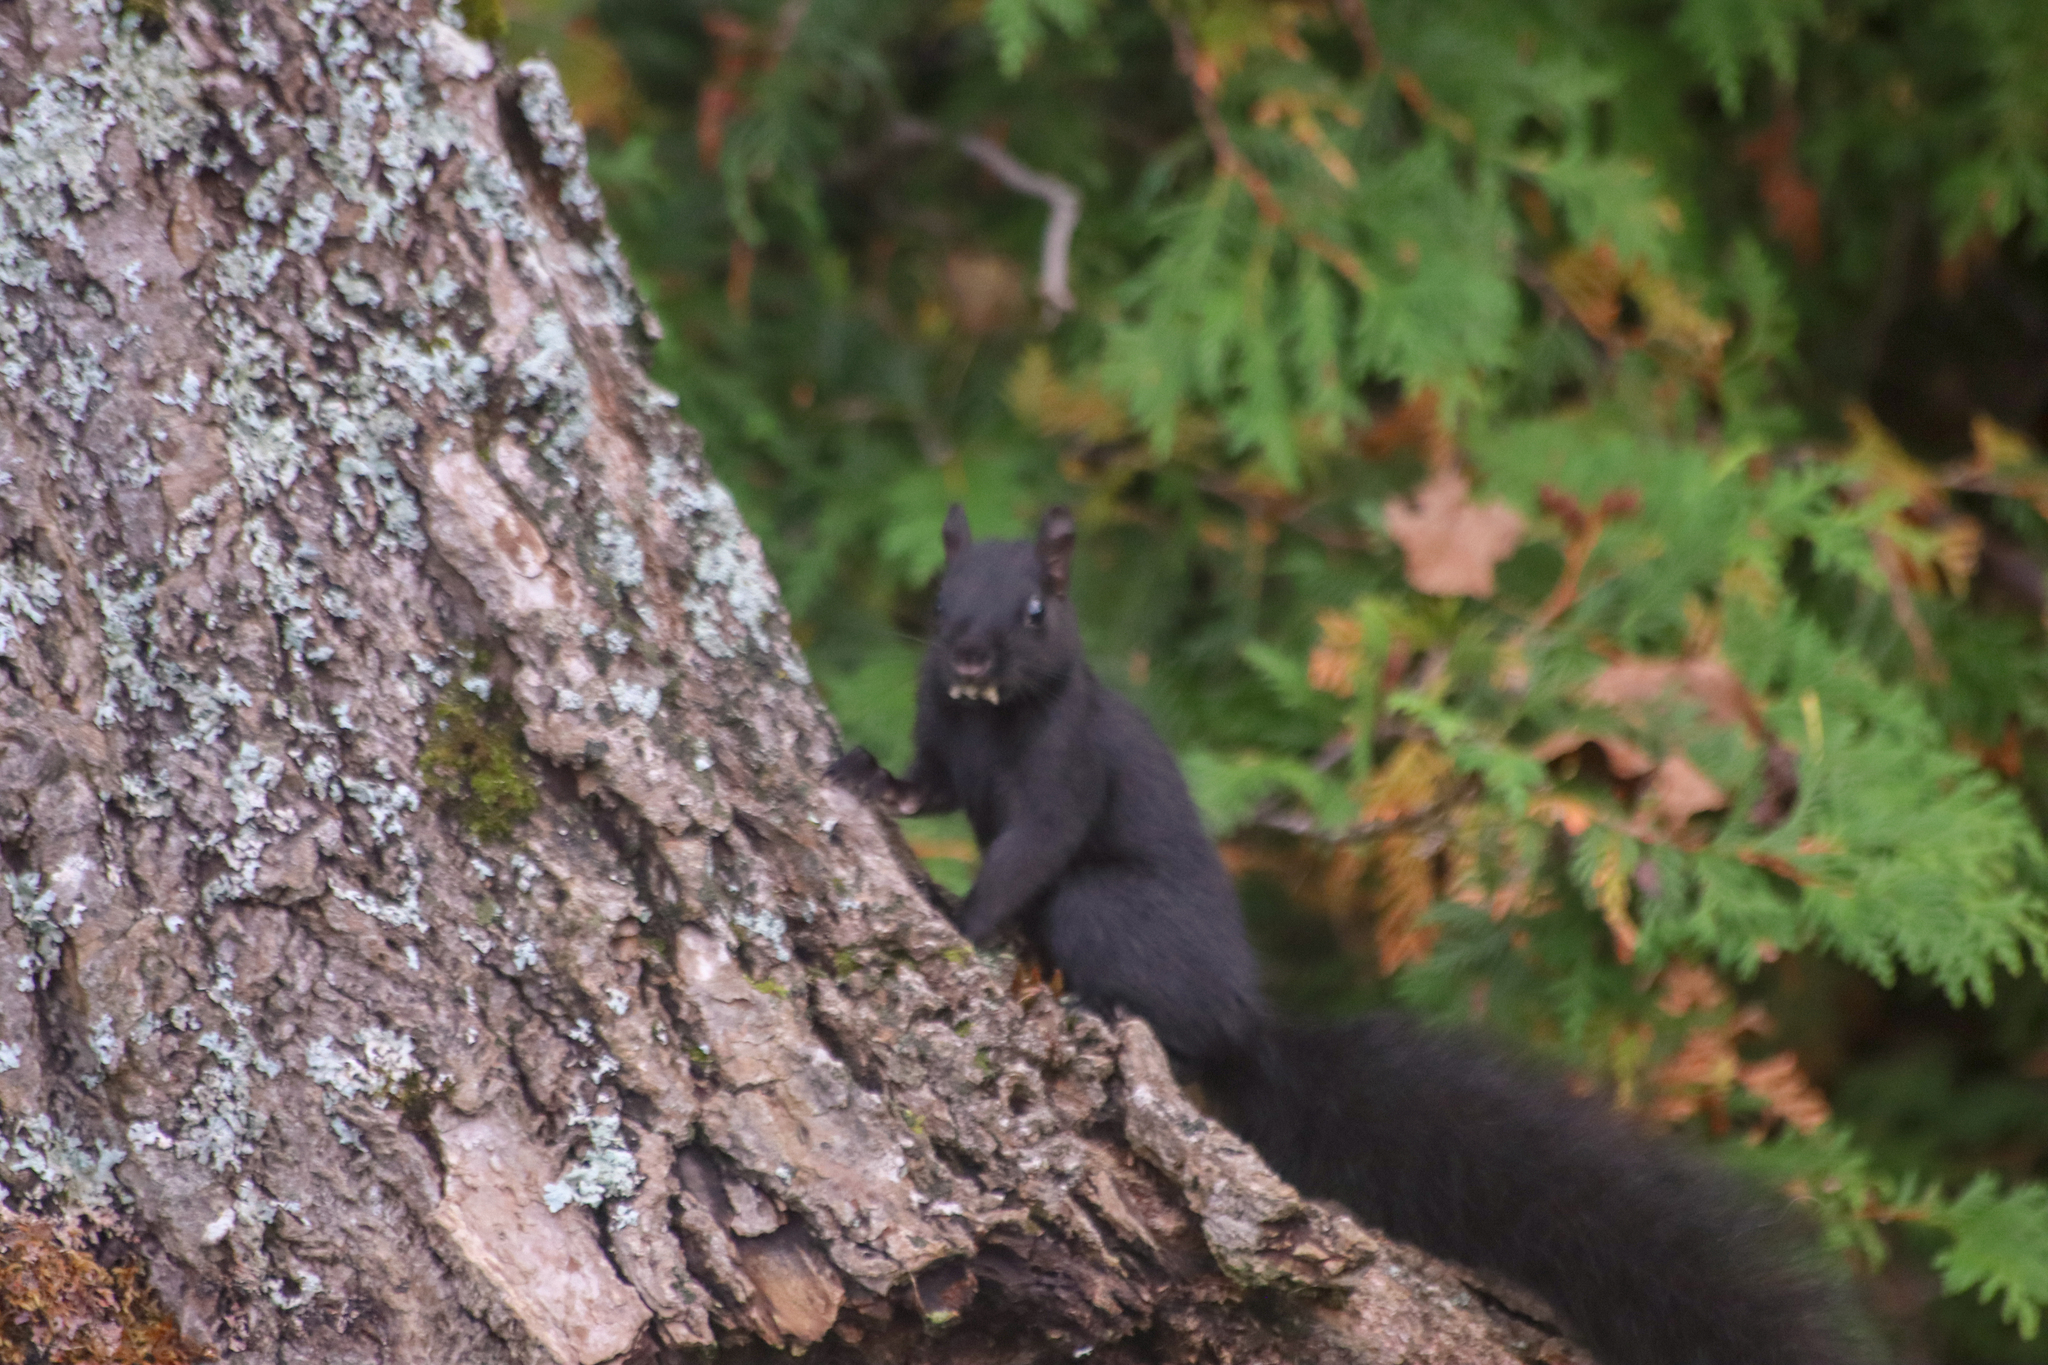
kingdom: Animalia
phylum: Chordata
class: Mammalia
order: Rodentia
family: Sciuridae
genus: Sciurus
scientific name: Sciurus carolinensis
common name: Eastern gray squirrel
